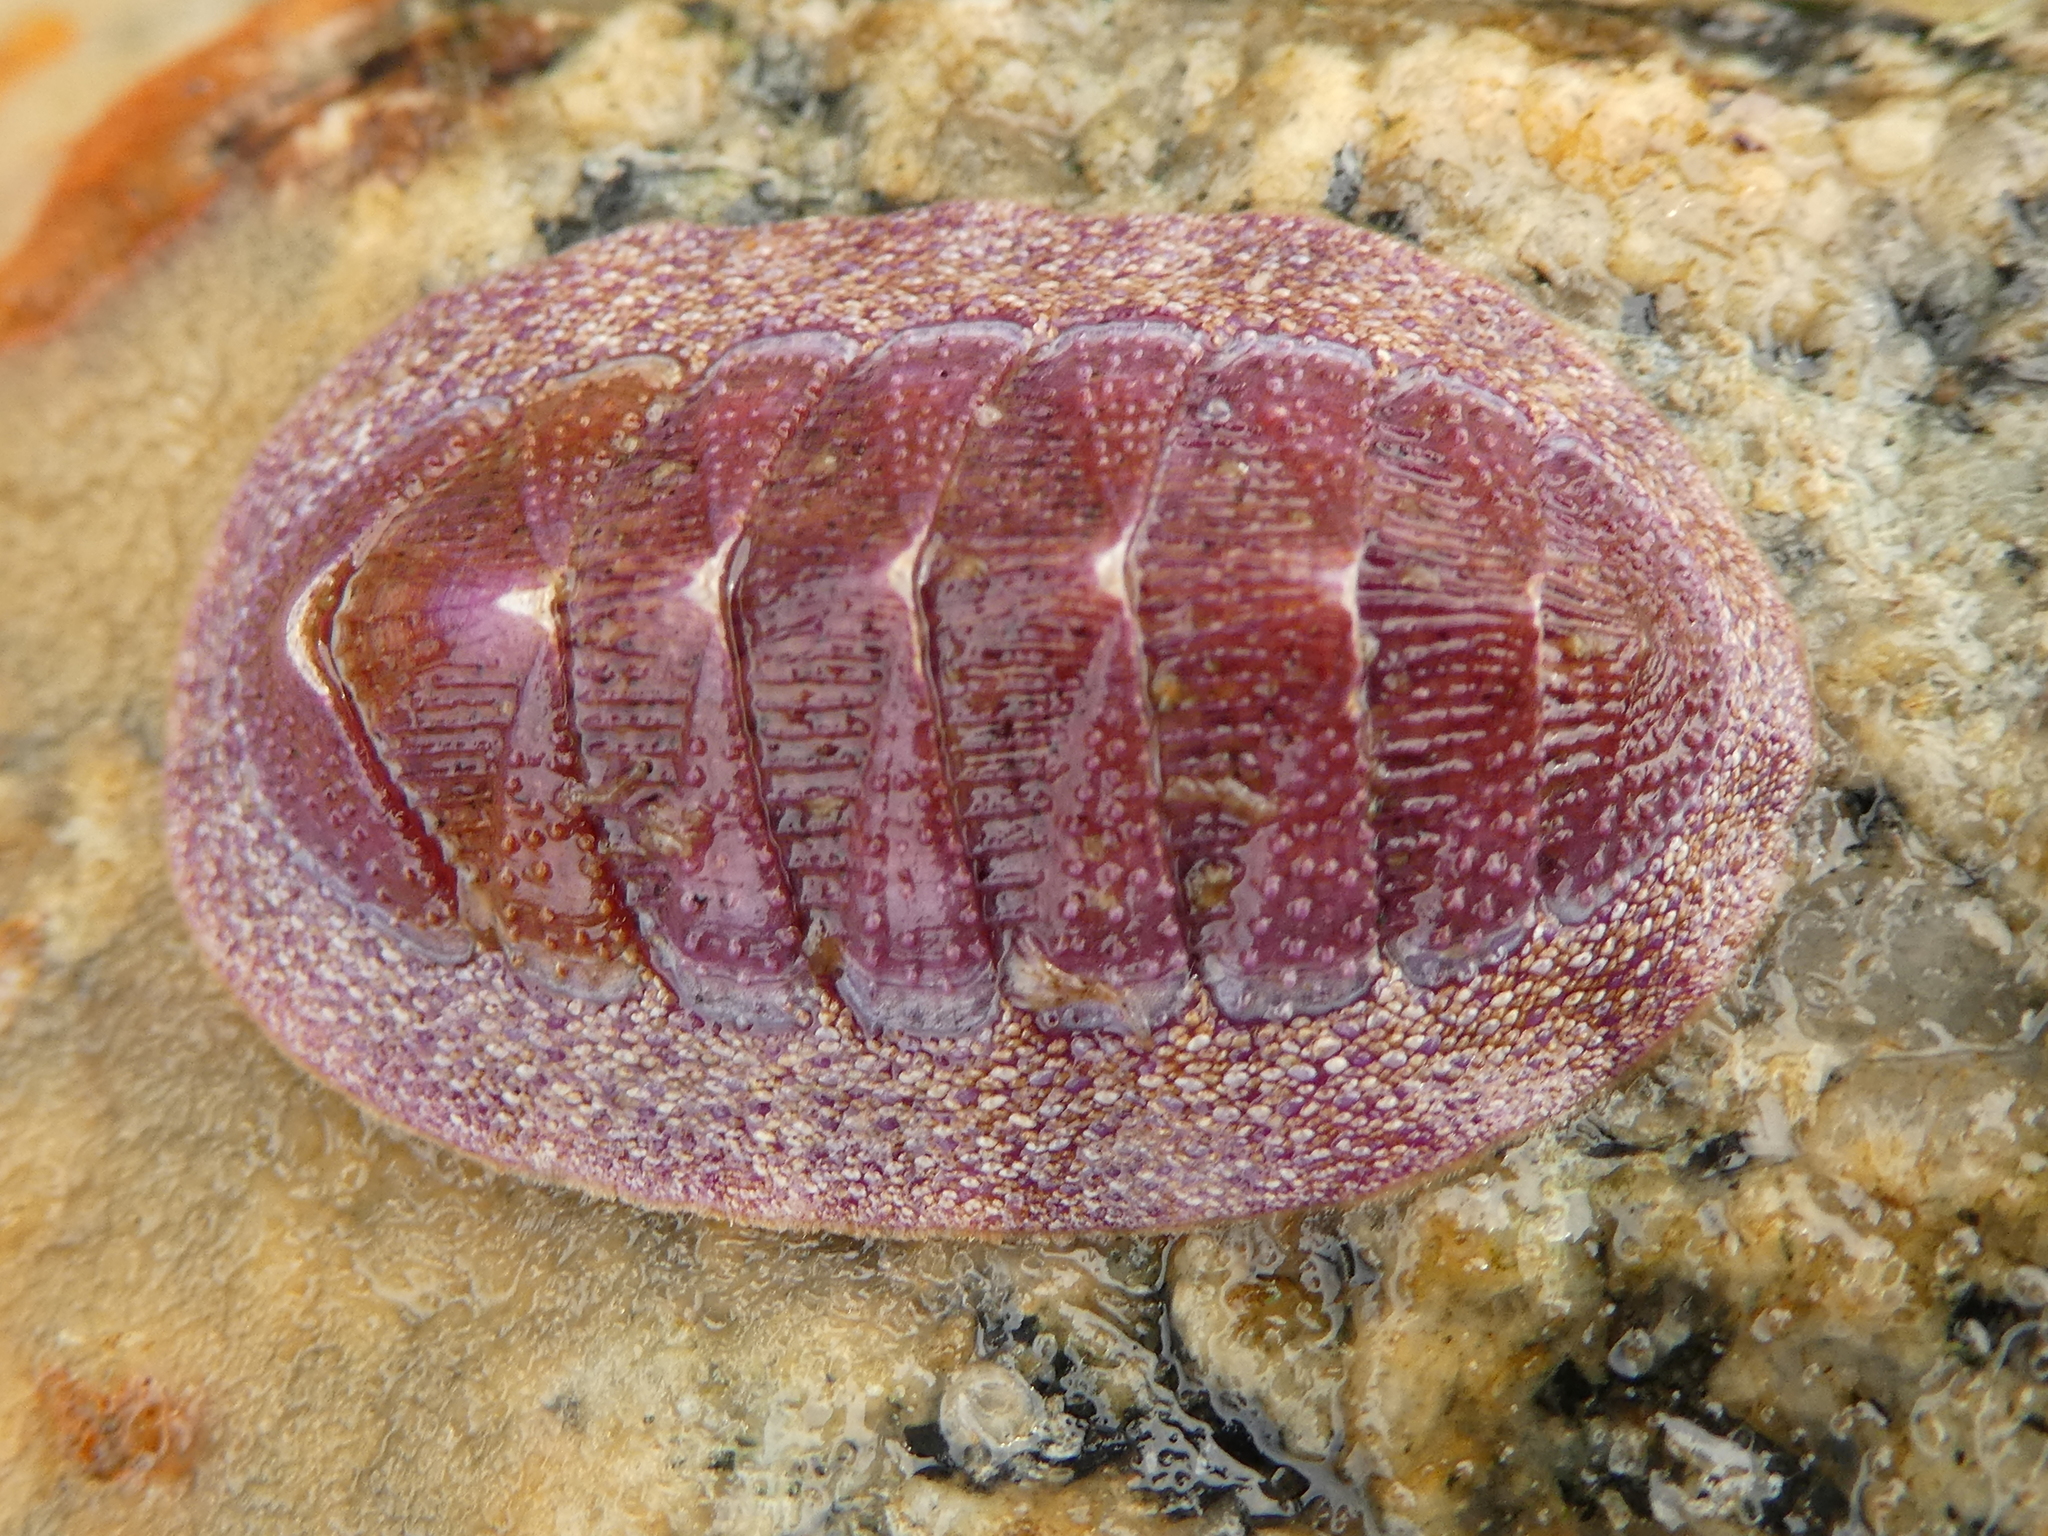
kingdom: Animalia
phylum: Mollusca
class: Polyplacophora
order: Chitonida
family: Ischnochitonidae
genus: Lepidozona
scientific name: Lepidozona mertensii
